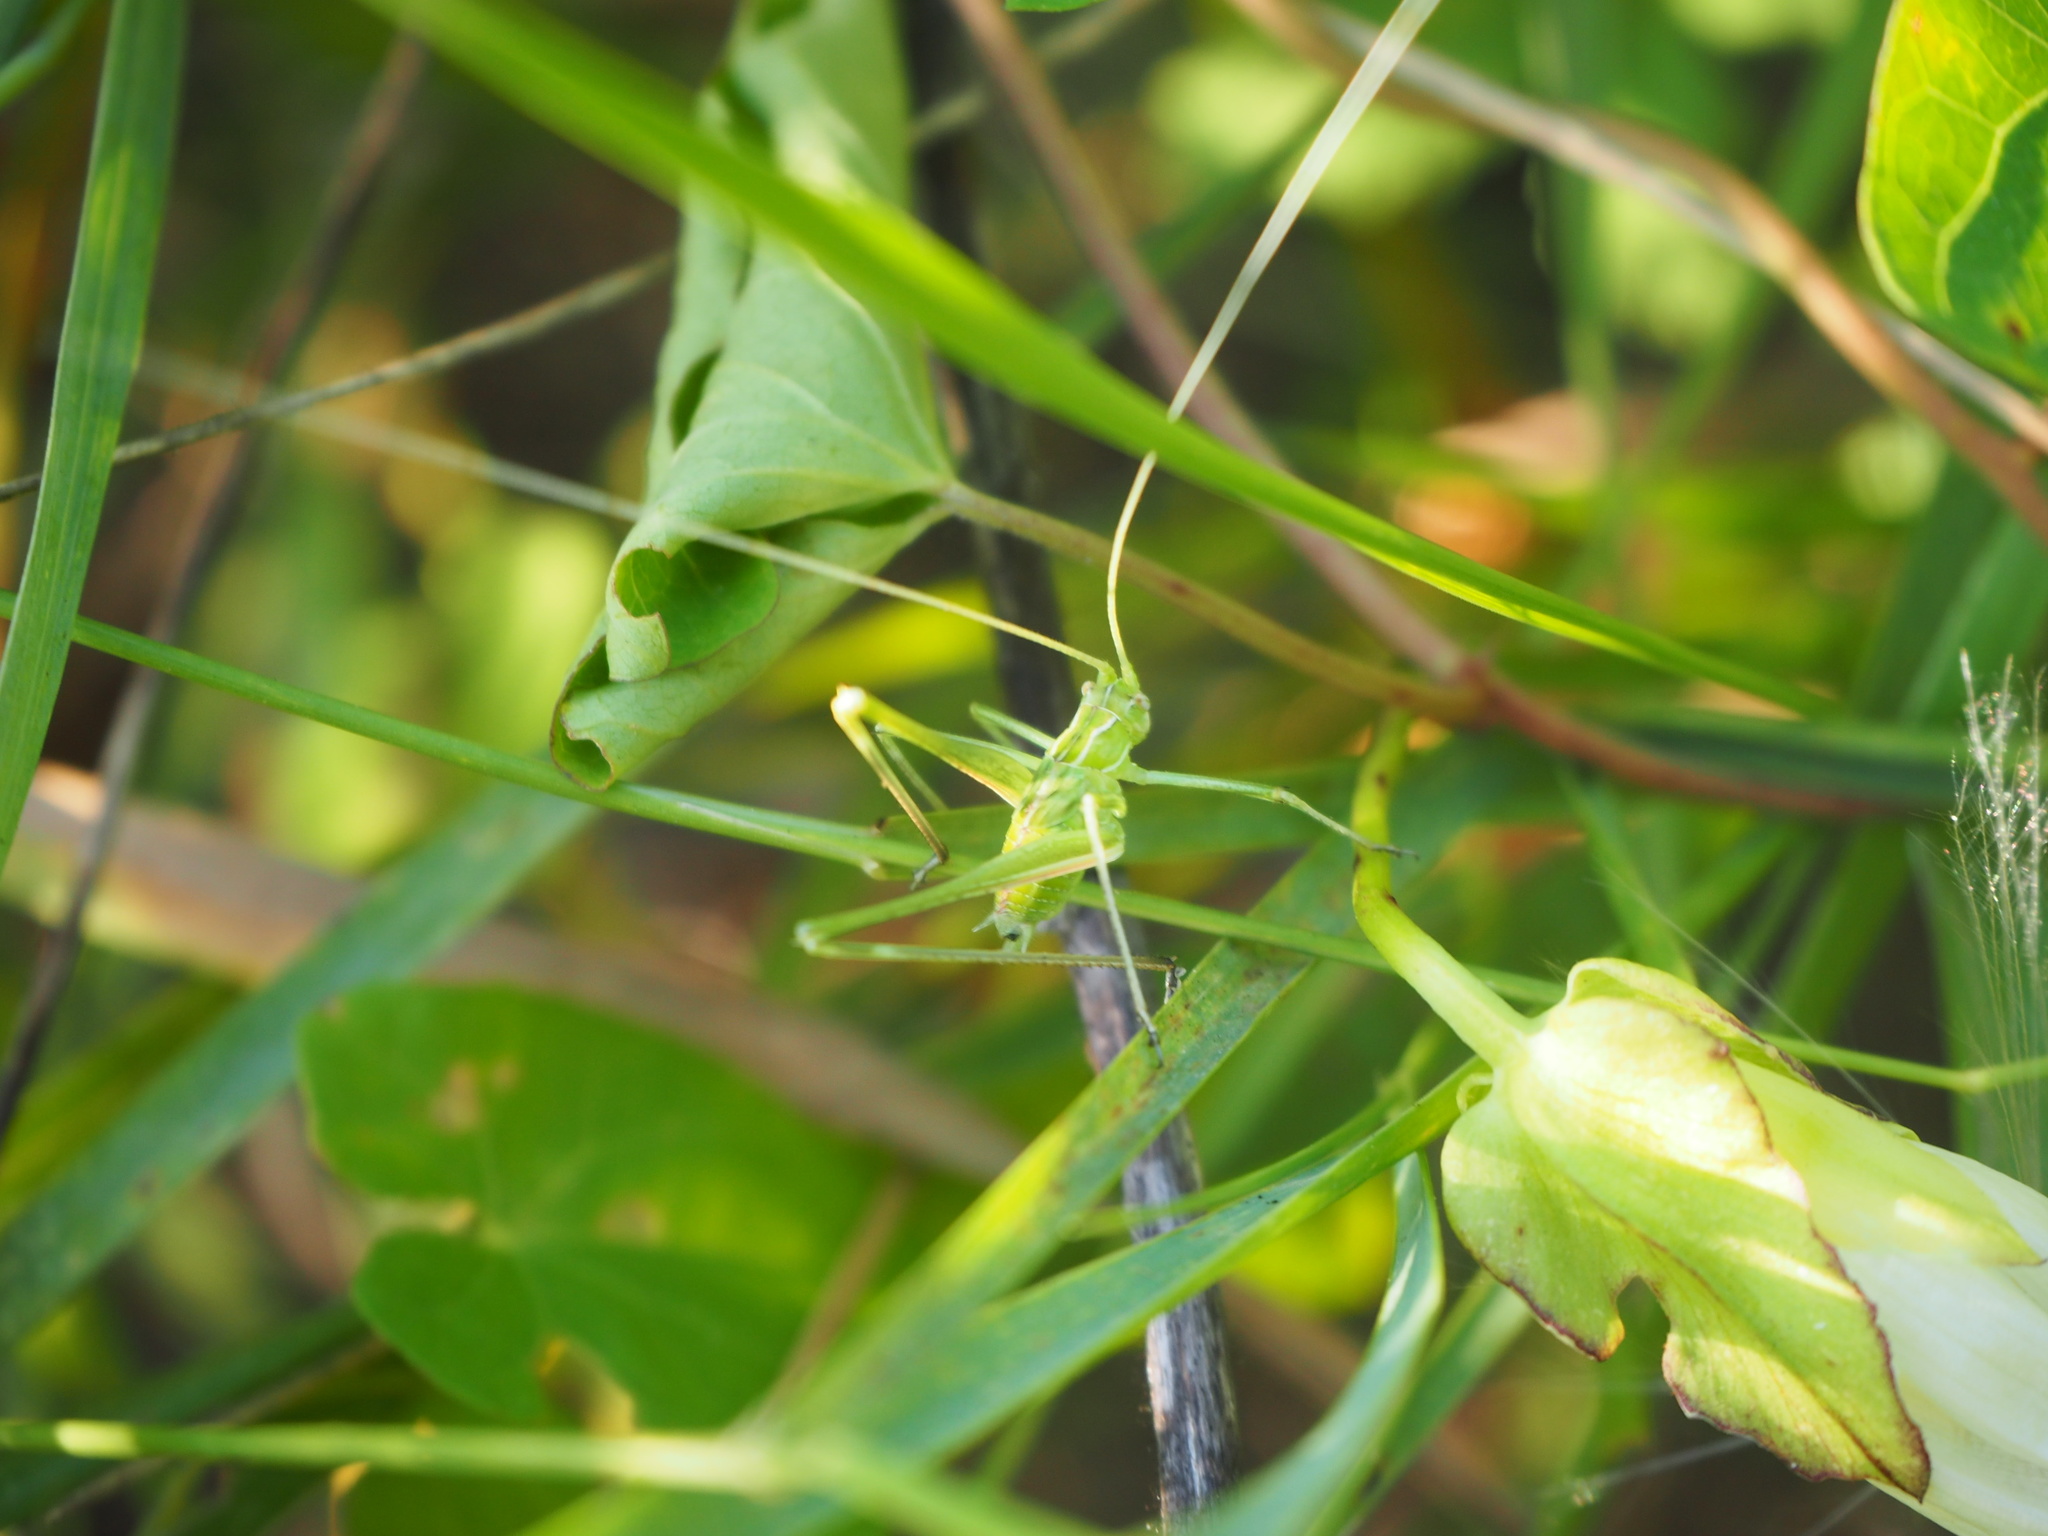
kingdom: Animalia
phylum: Arthropoda
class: Insecta
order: Orthoptera
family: Tettigoniidae
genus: Tylopsis
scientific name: Tylopsis lilifolia
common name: Lily bush-cricket
